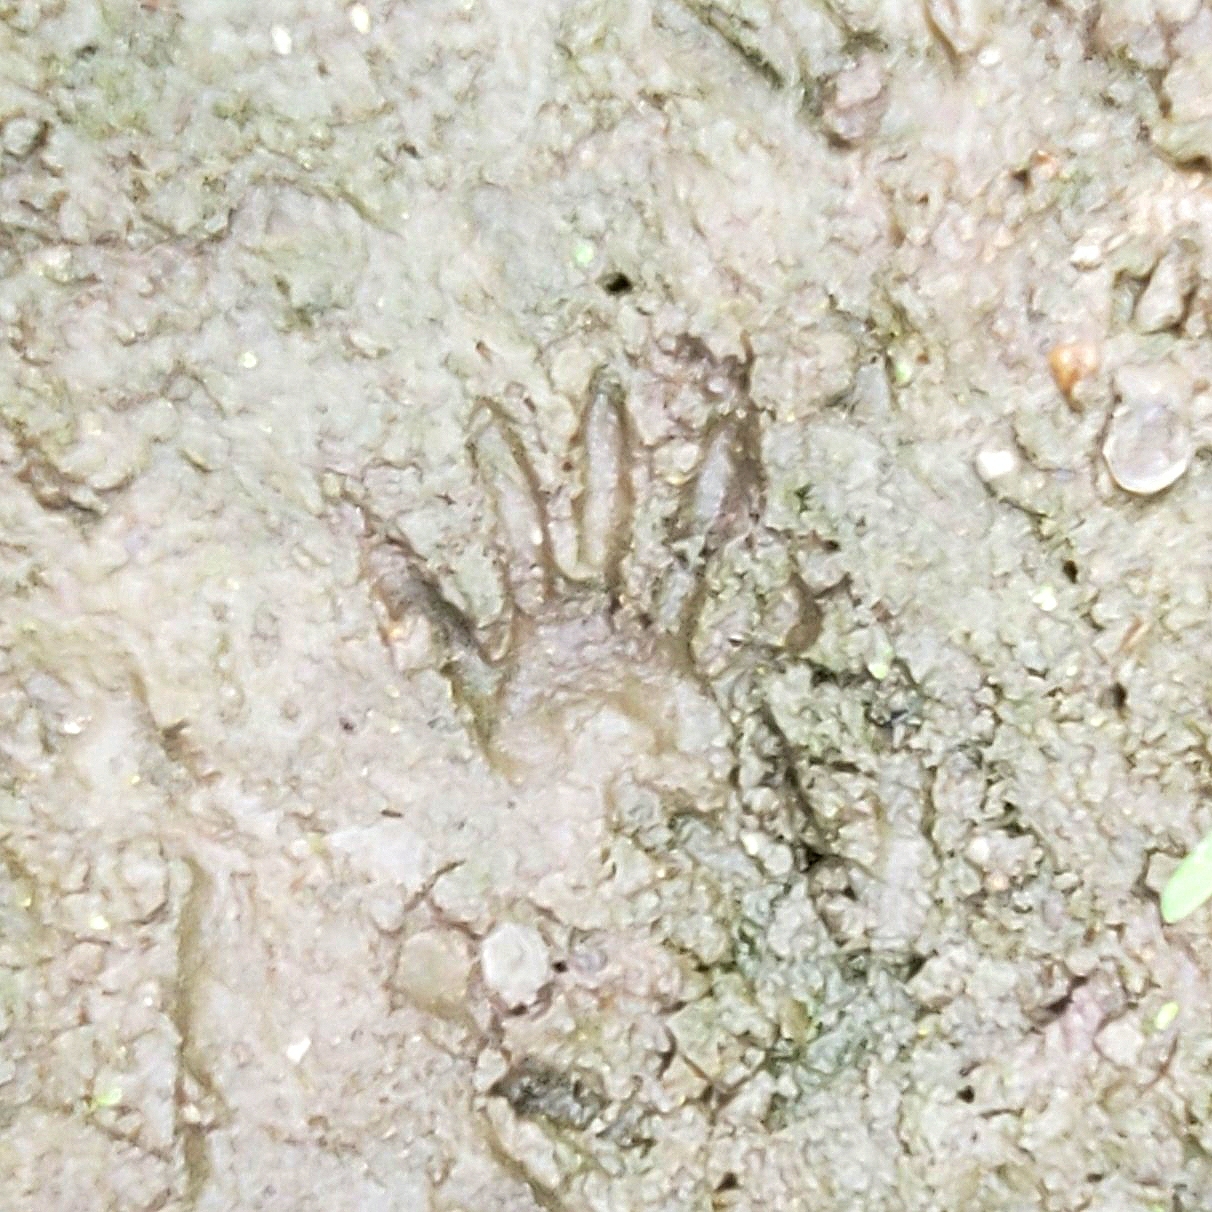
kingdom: Animalia
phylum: Chordata
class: Mammalia
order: Carnivora
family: Procyonidae
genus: Procyon
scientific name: Procyon lotor
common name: Raccoon
